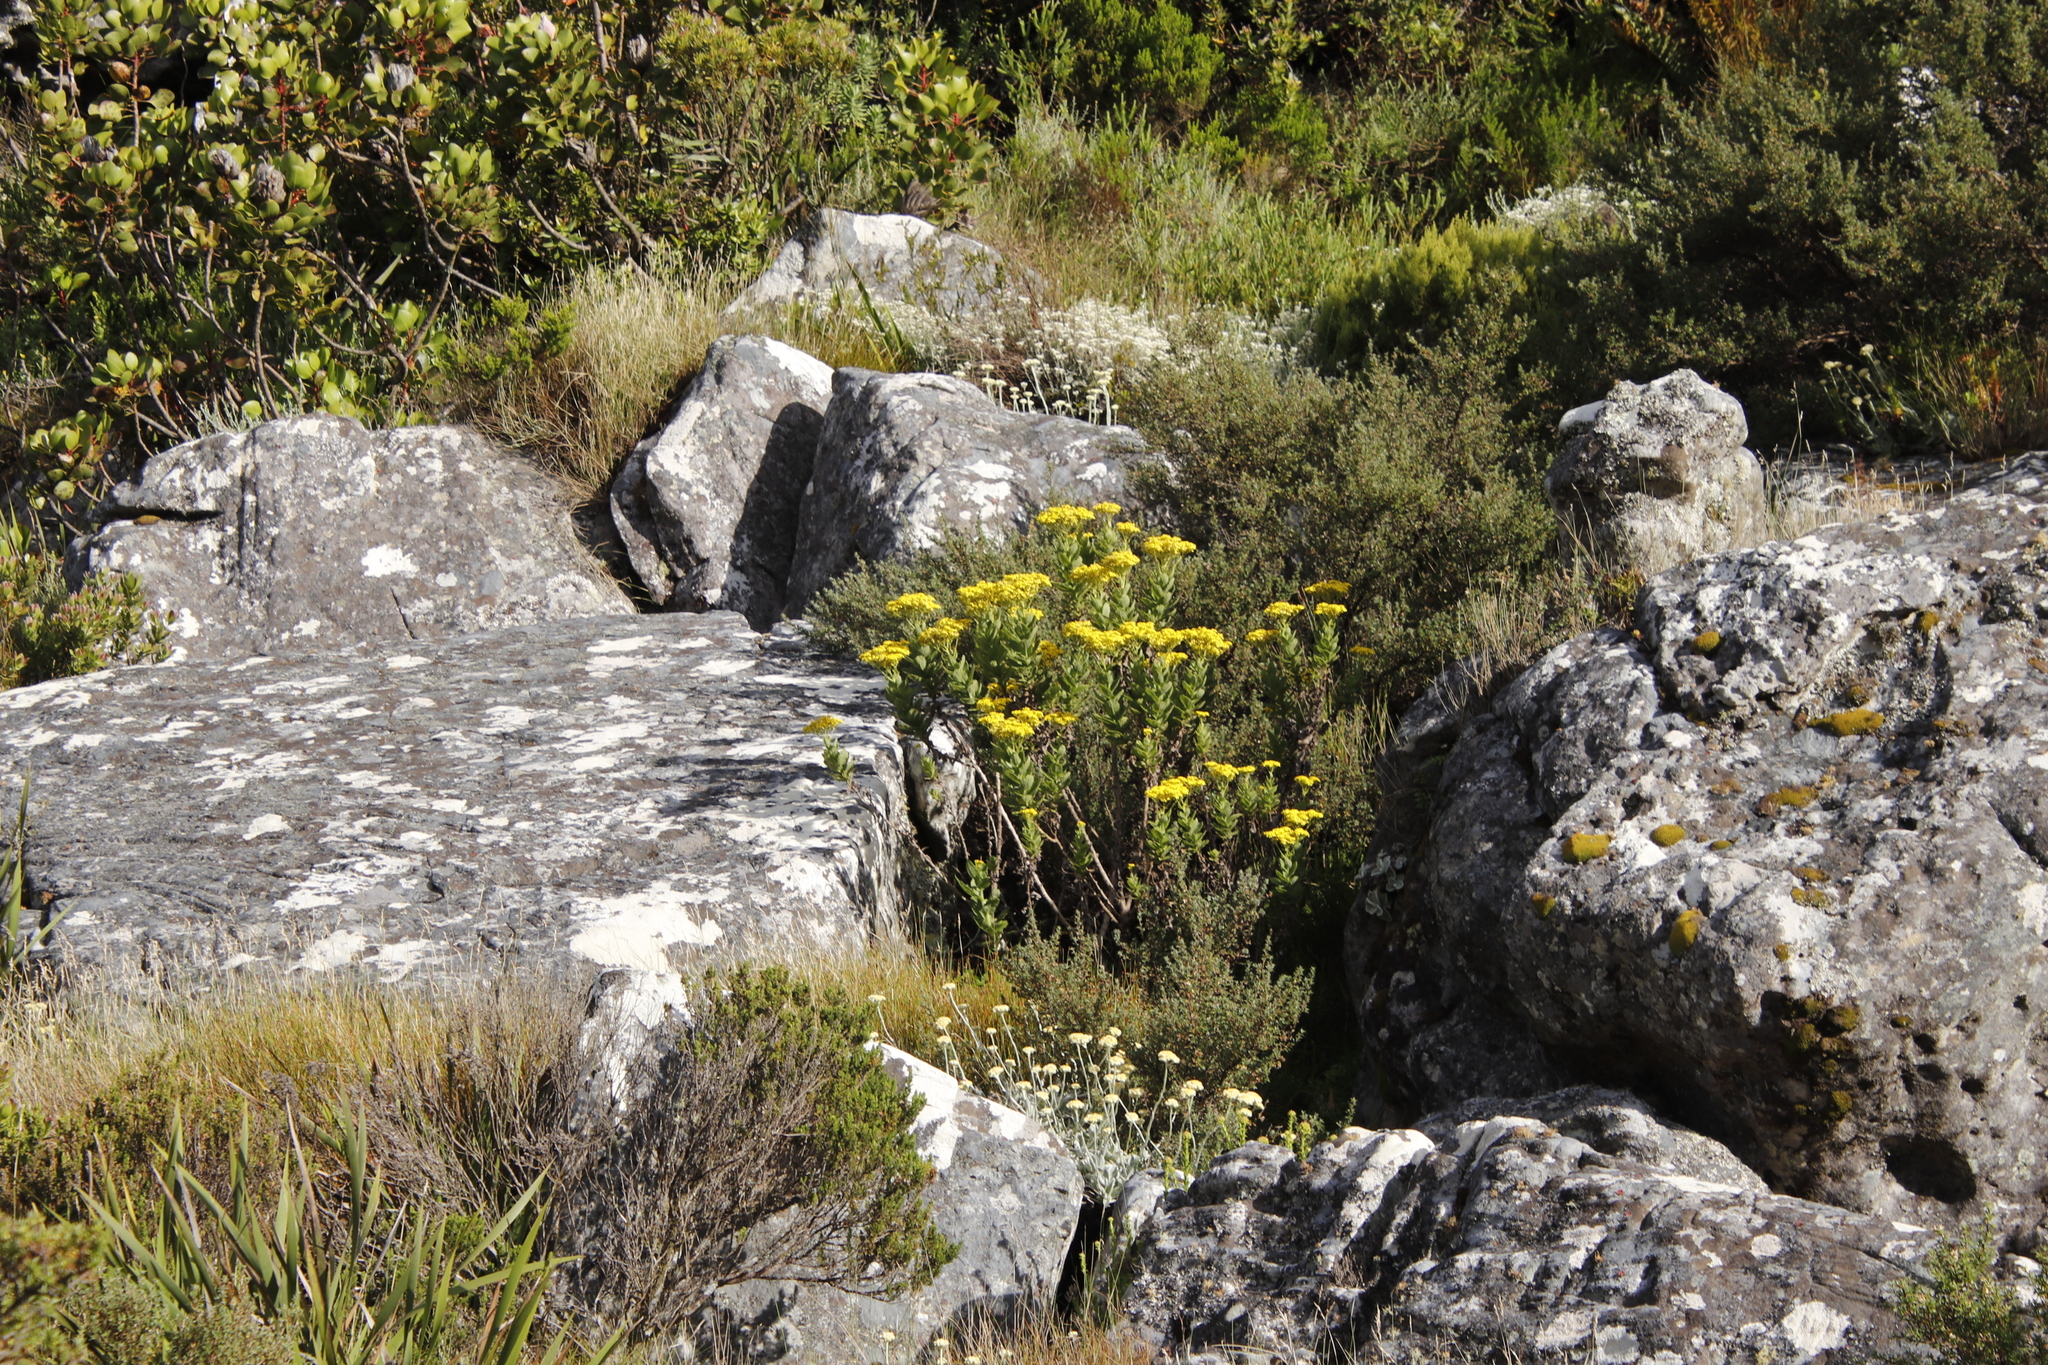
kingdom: Plantae
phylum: Tracheophyta
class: Magnoliopsida
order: Asterales
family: Asteraceae
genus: Senecio
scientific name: Senecio rigidus
